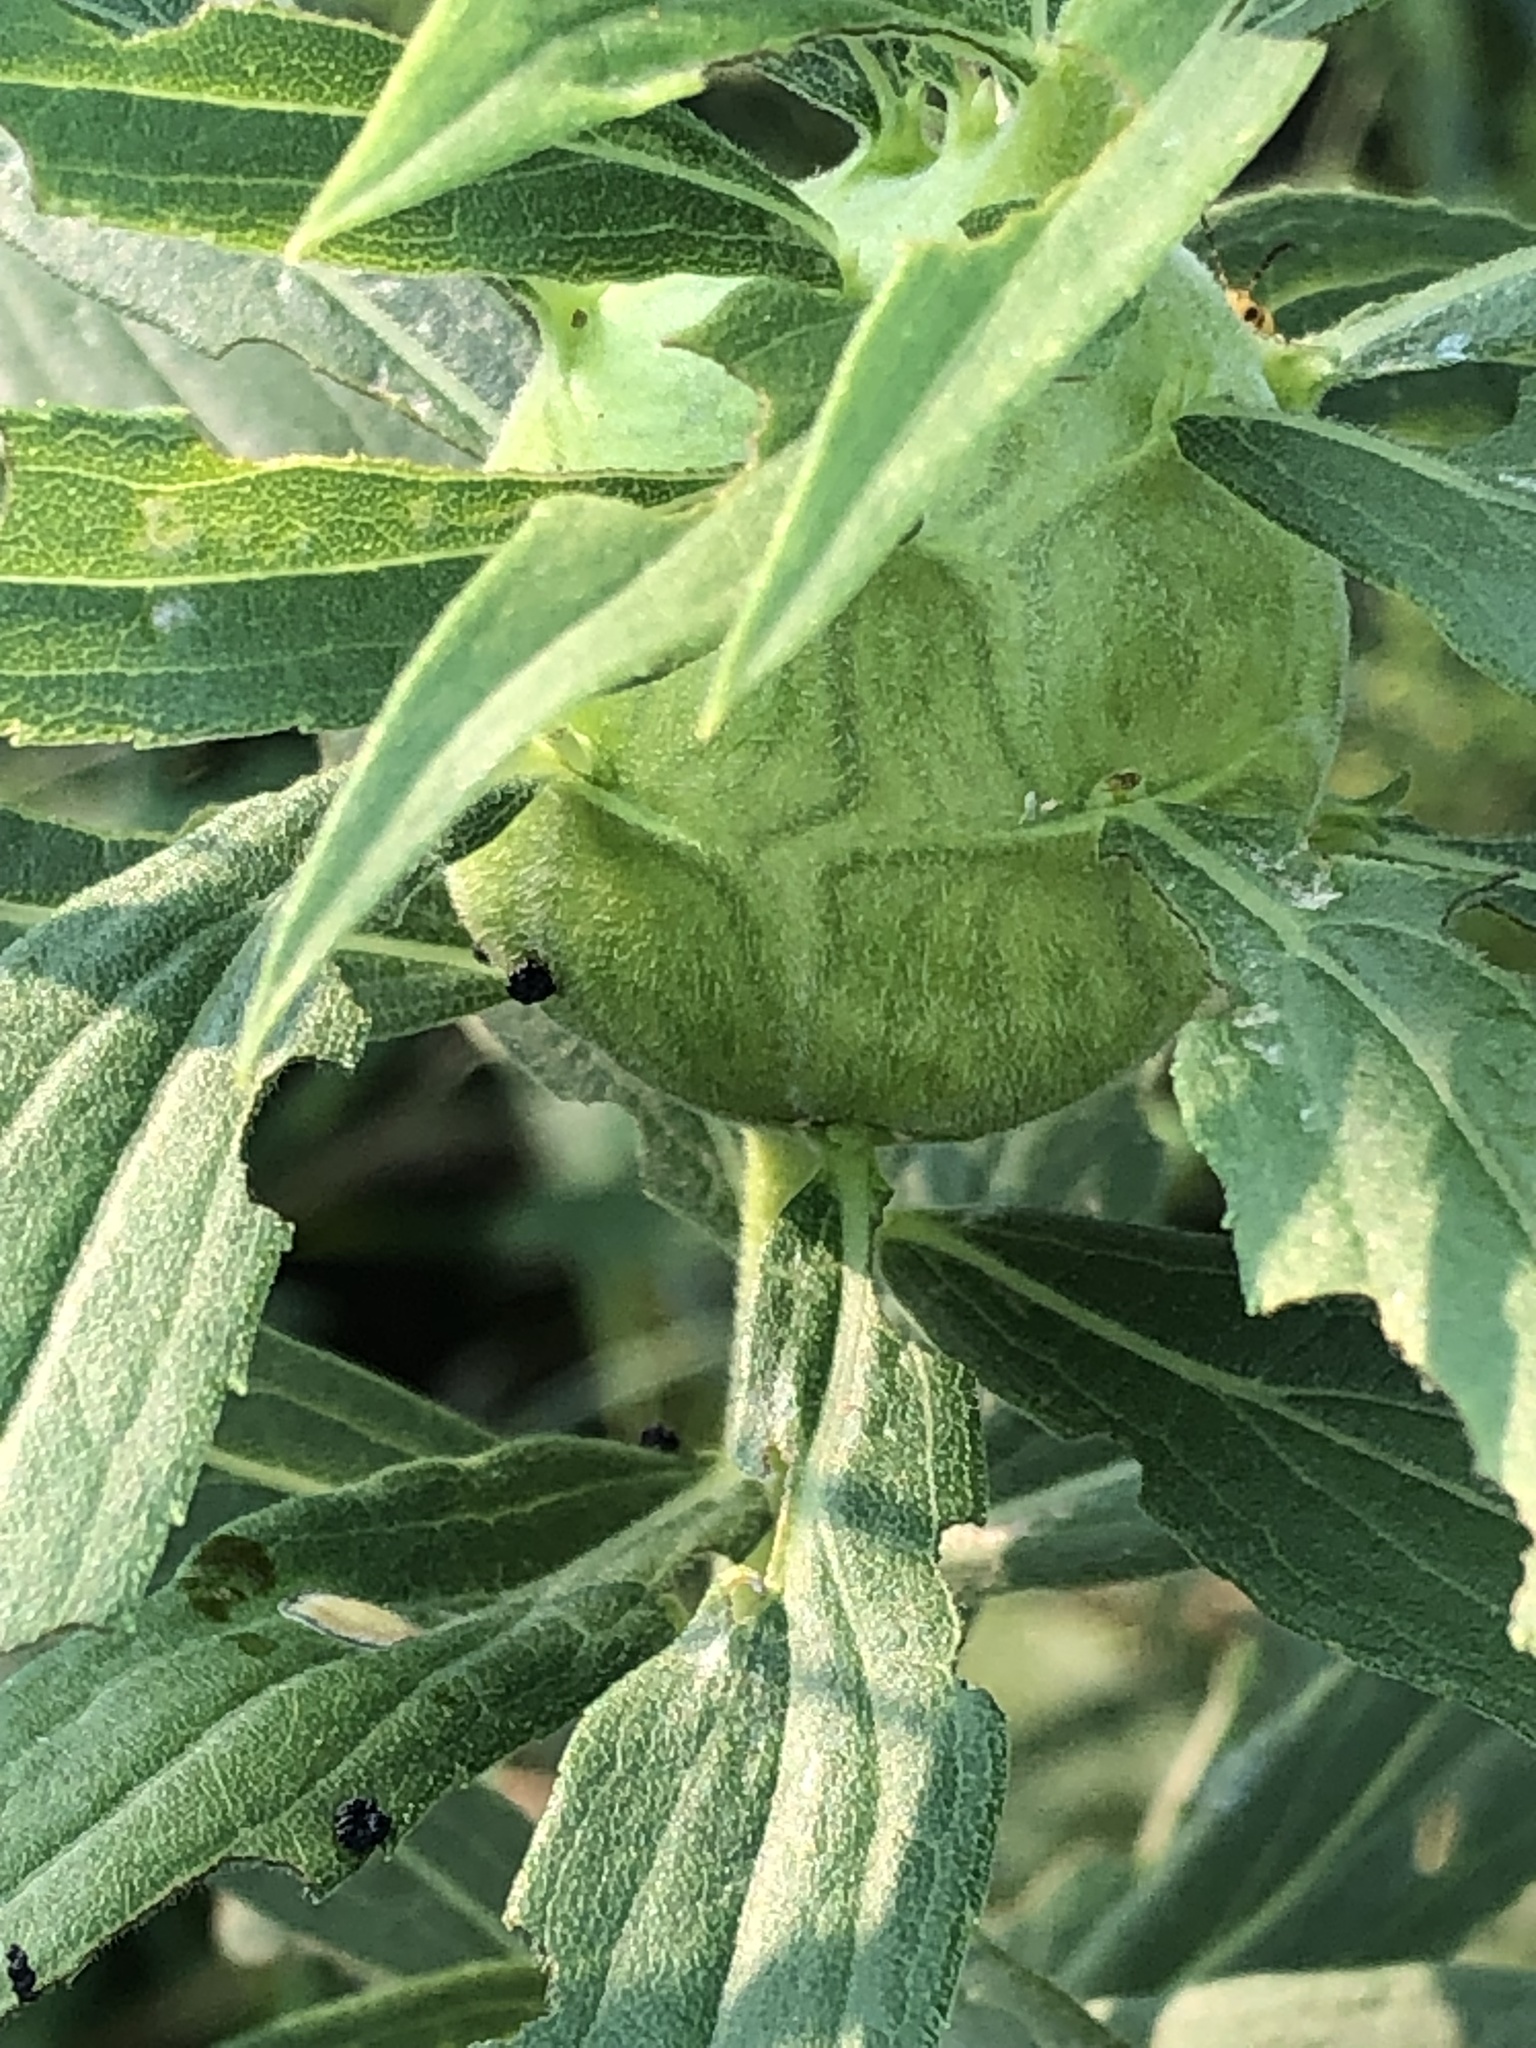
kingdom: Animalia
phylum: Arthropoda
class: Insecta
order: Diptera
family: Tephritidae
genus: Eurosta
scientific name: Eurosta solidaginis
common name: Goldenrod gall fly
